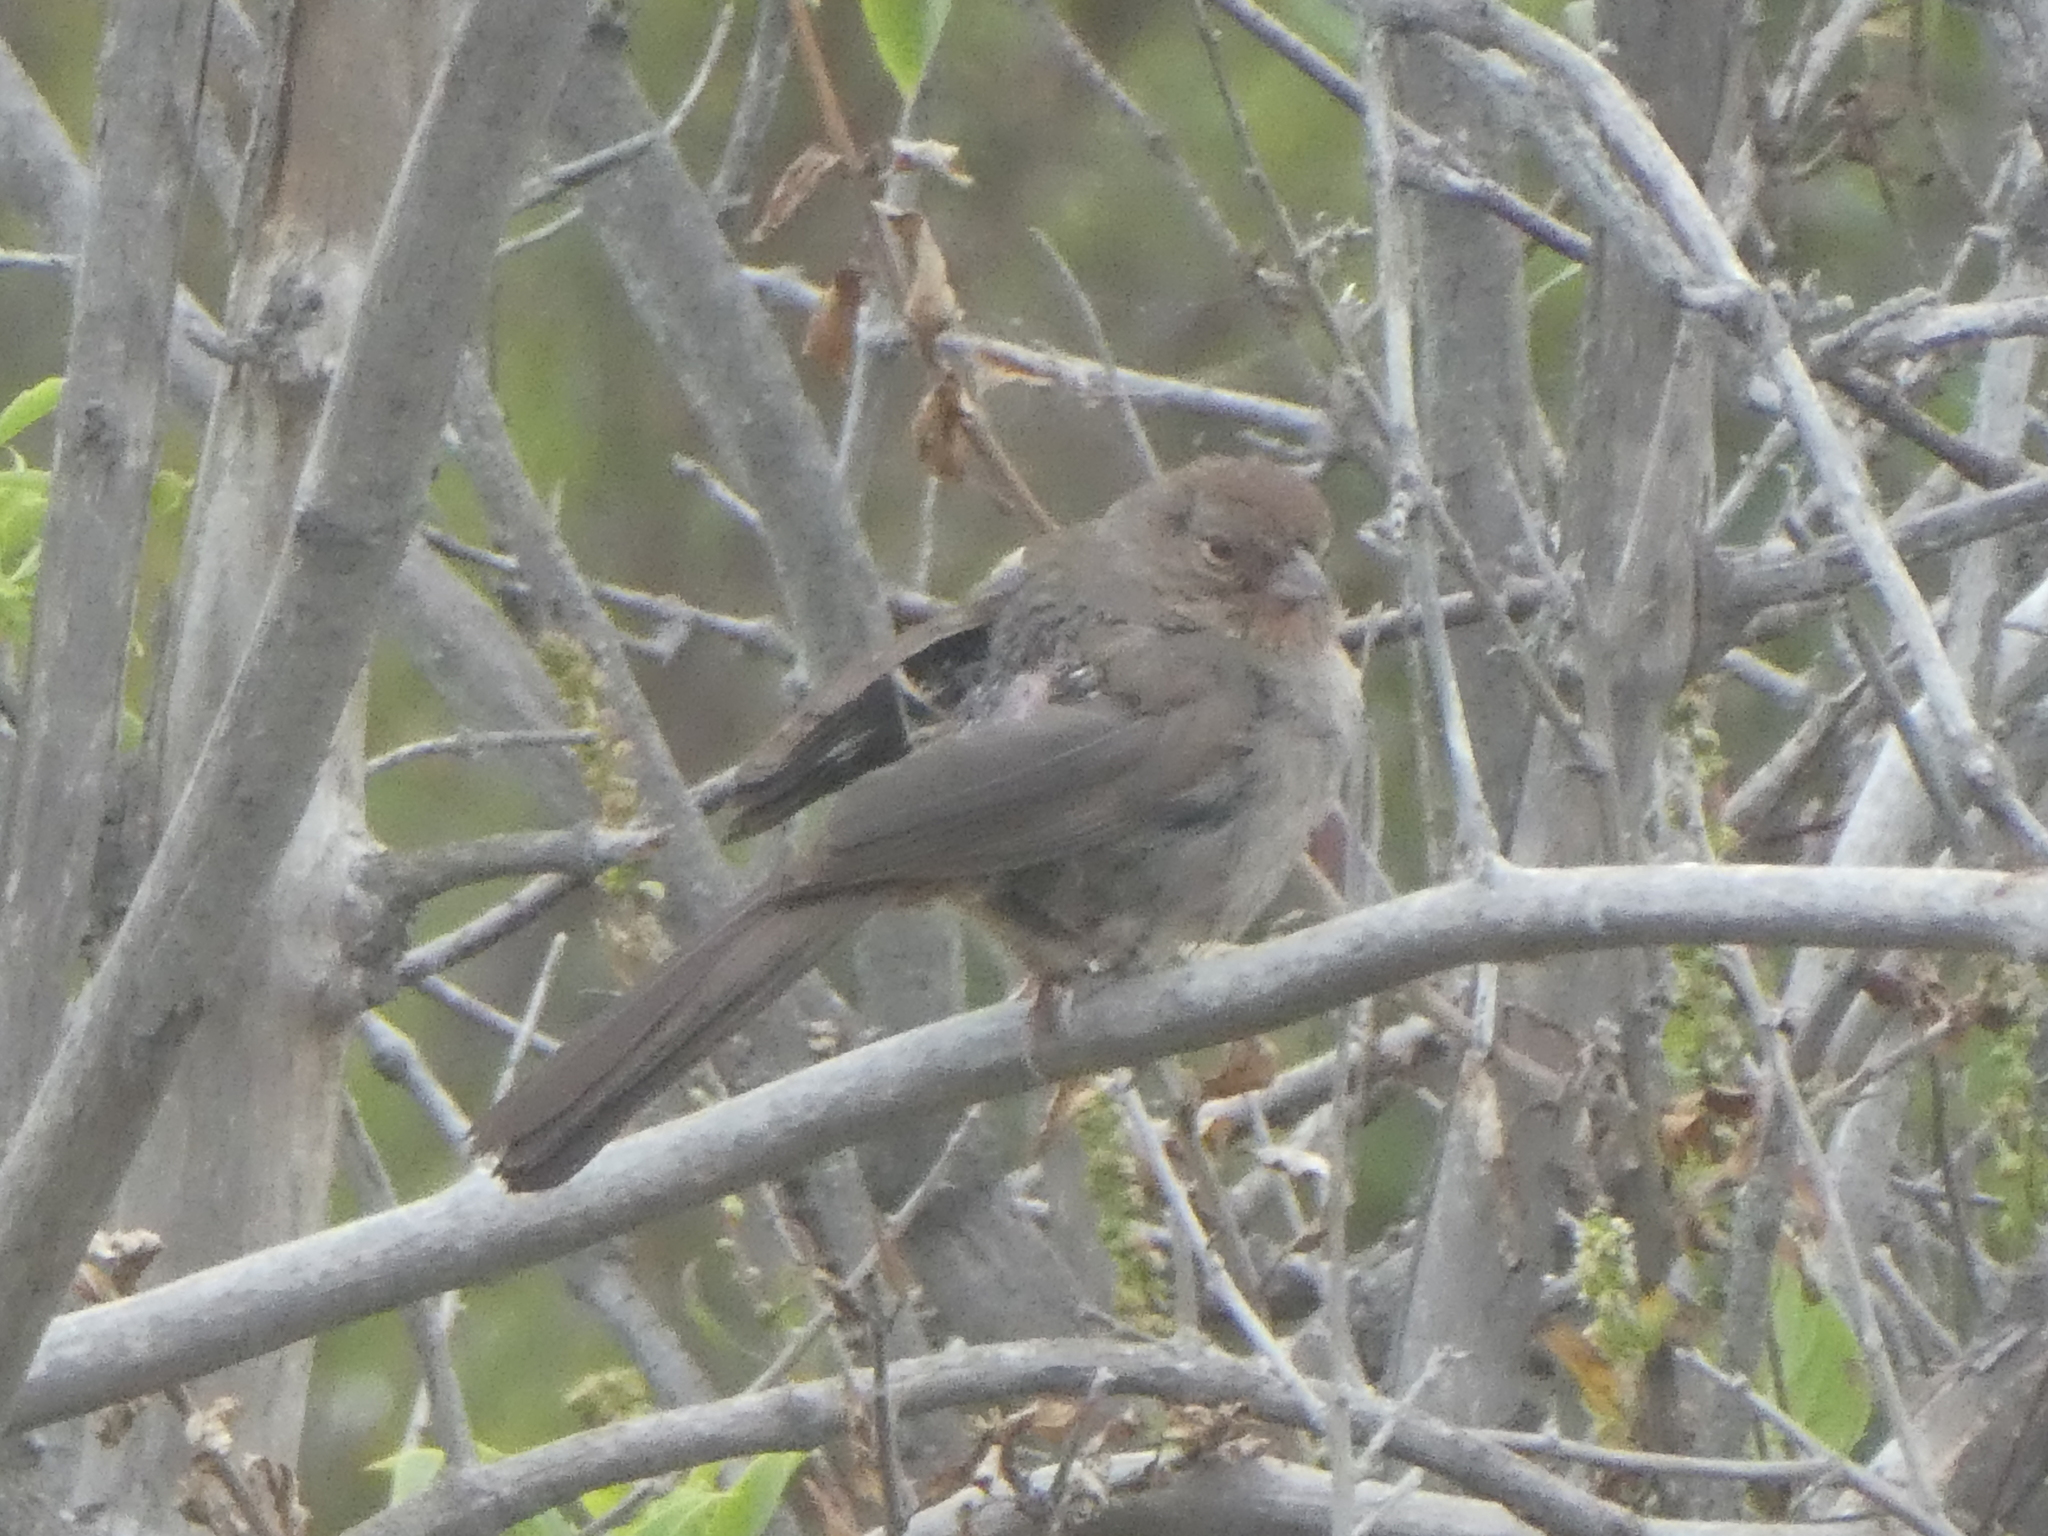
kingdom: Animalia
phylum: Chordata
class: Aves
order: Passeriformes
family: Passerellidae
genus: Melozone
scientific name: Melozone crissalis
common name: California towhee
